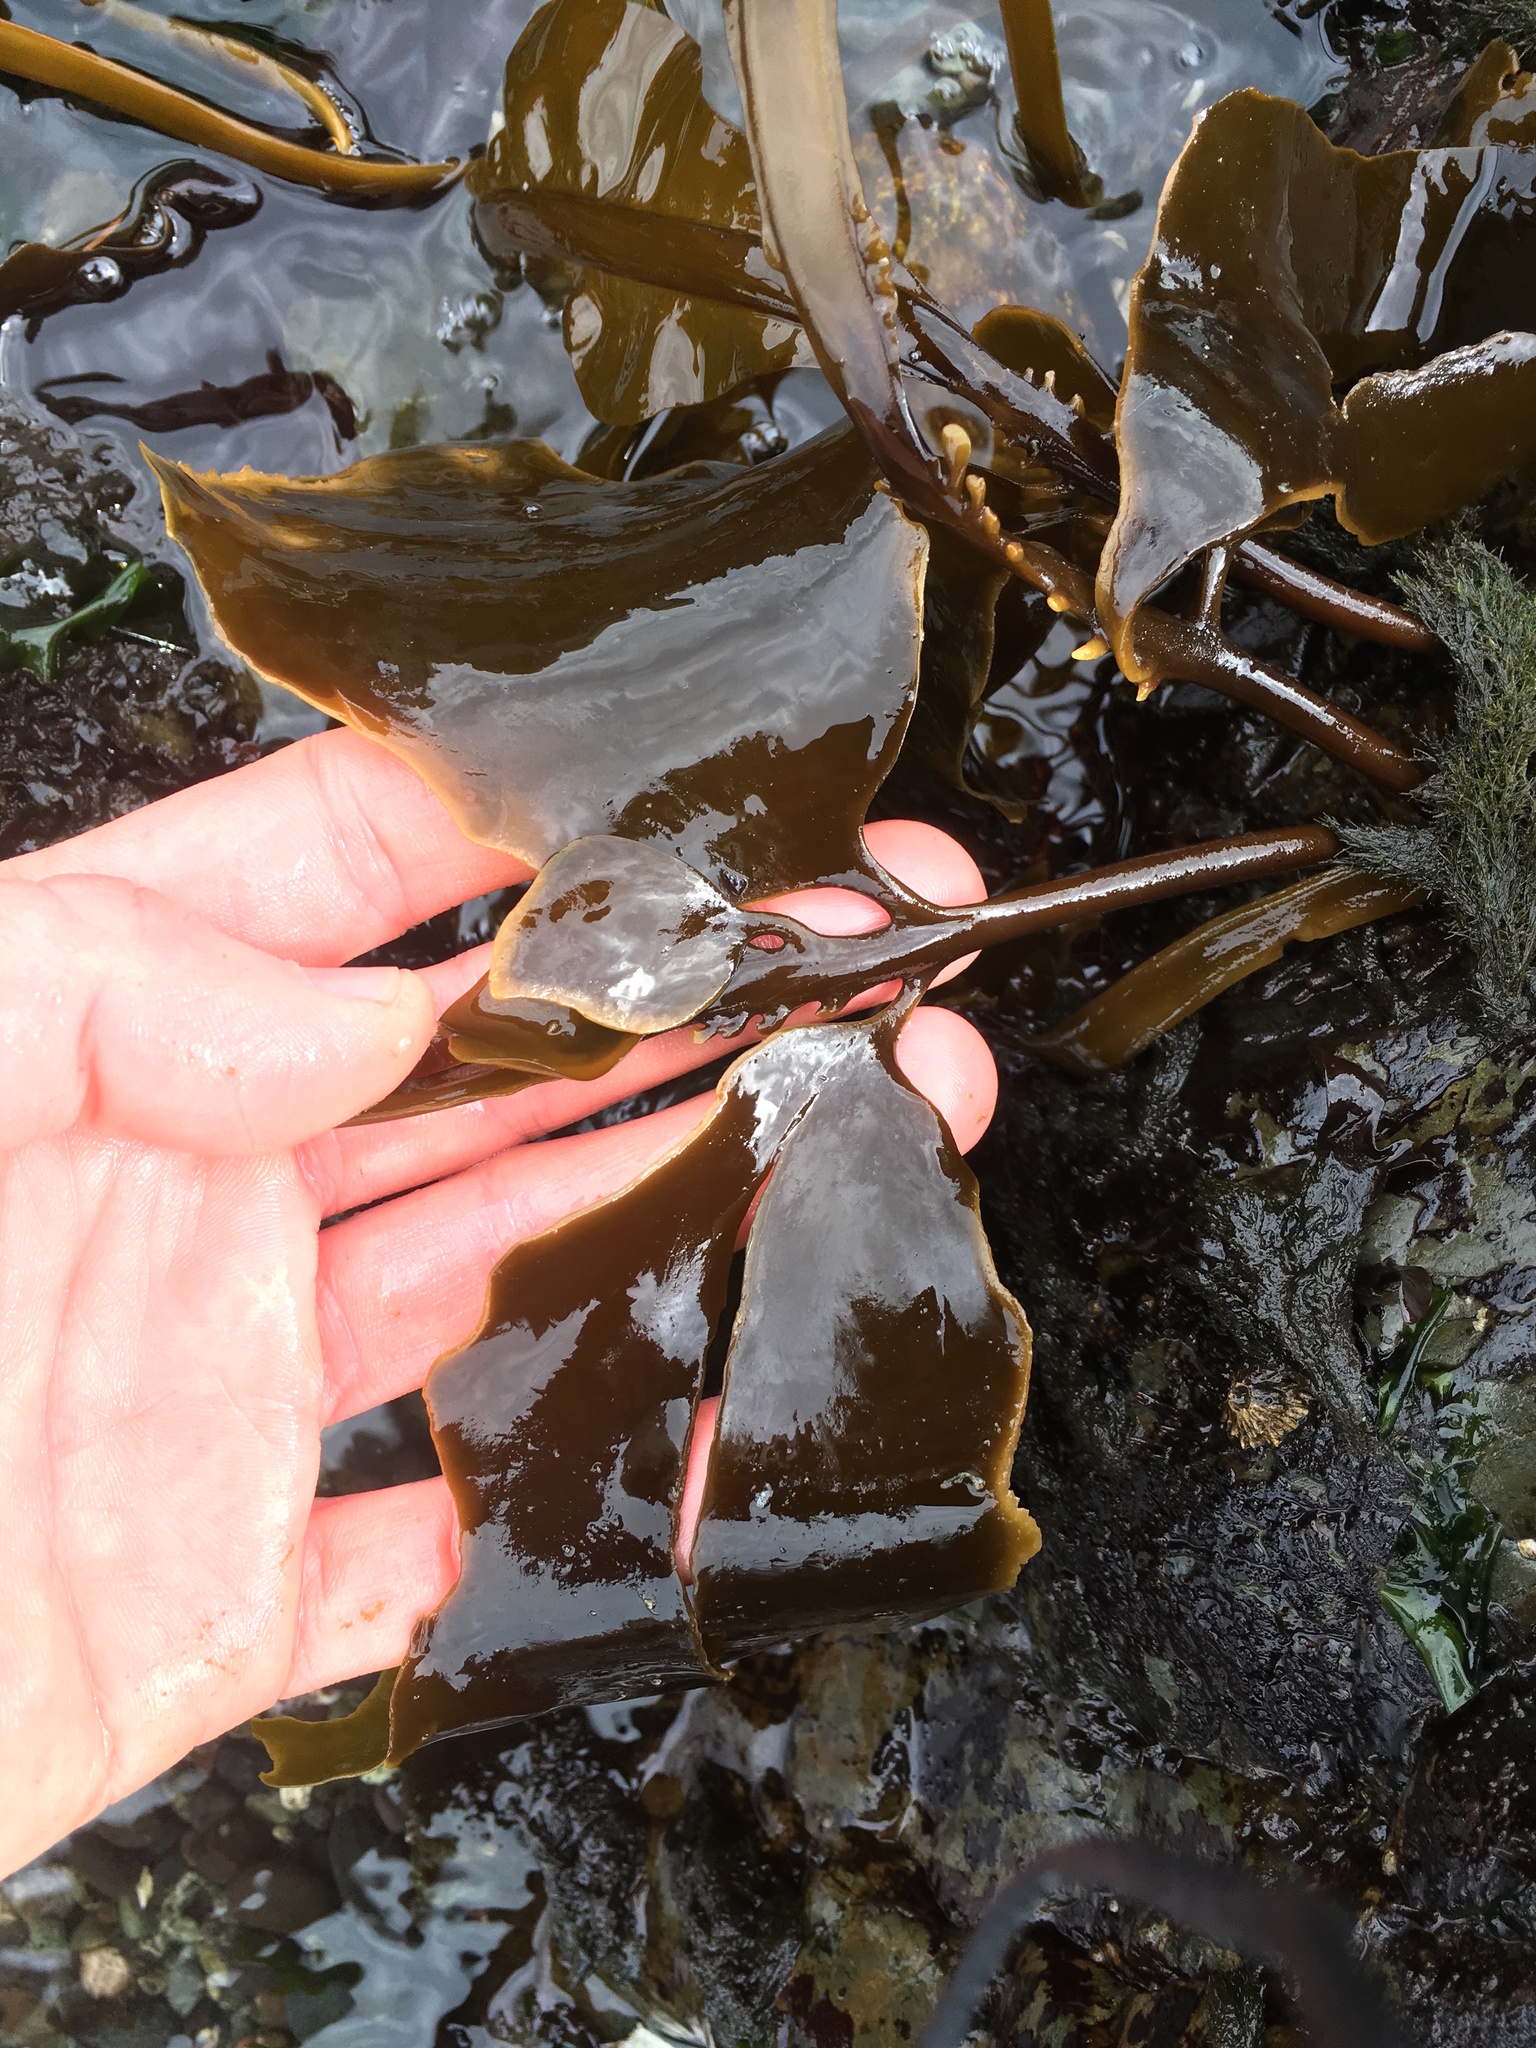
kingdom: Chromista
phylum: Ochrophyta
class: Phaeophyceae
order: Laminariales
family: Alariaceae
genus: Alaria
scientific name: Alaria marginata
